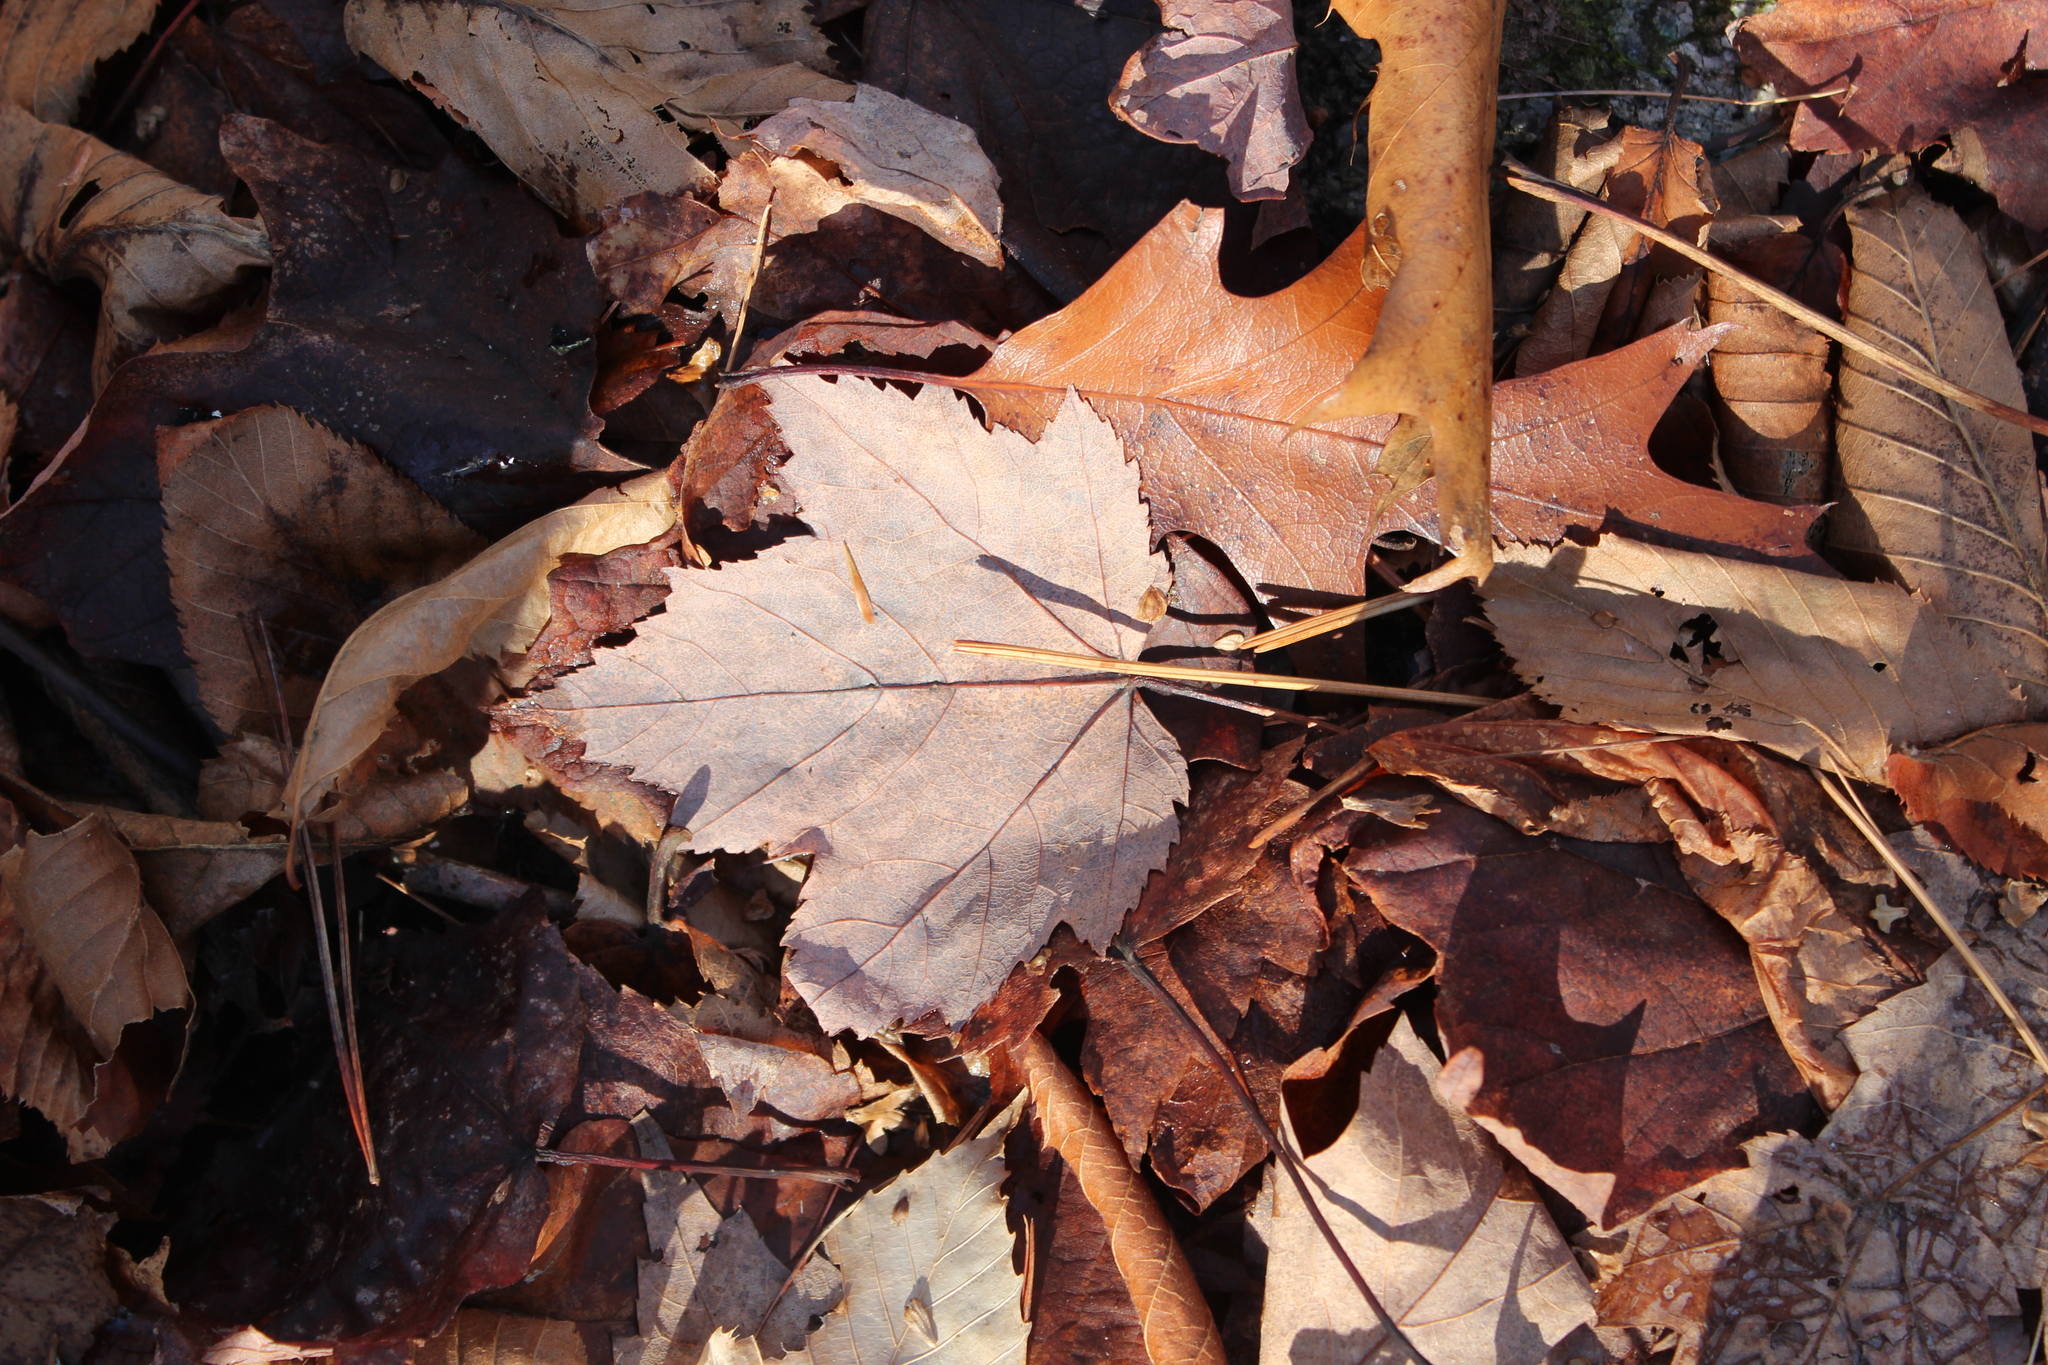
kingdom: Plantae
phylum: Tracheophyta
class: Magnoliopsida
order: Sapindales
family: Sapindaceae
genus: Acer
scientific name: Acer rubrum
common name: Red maple
